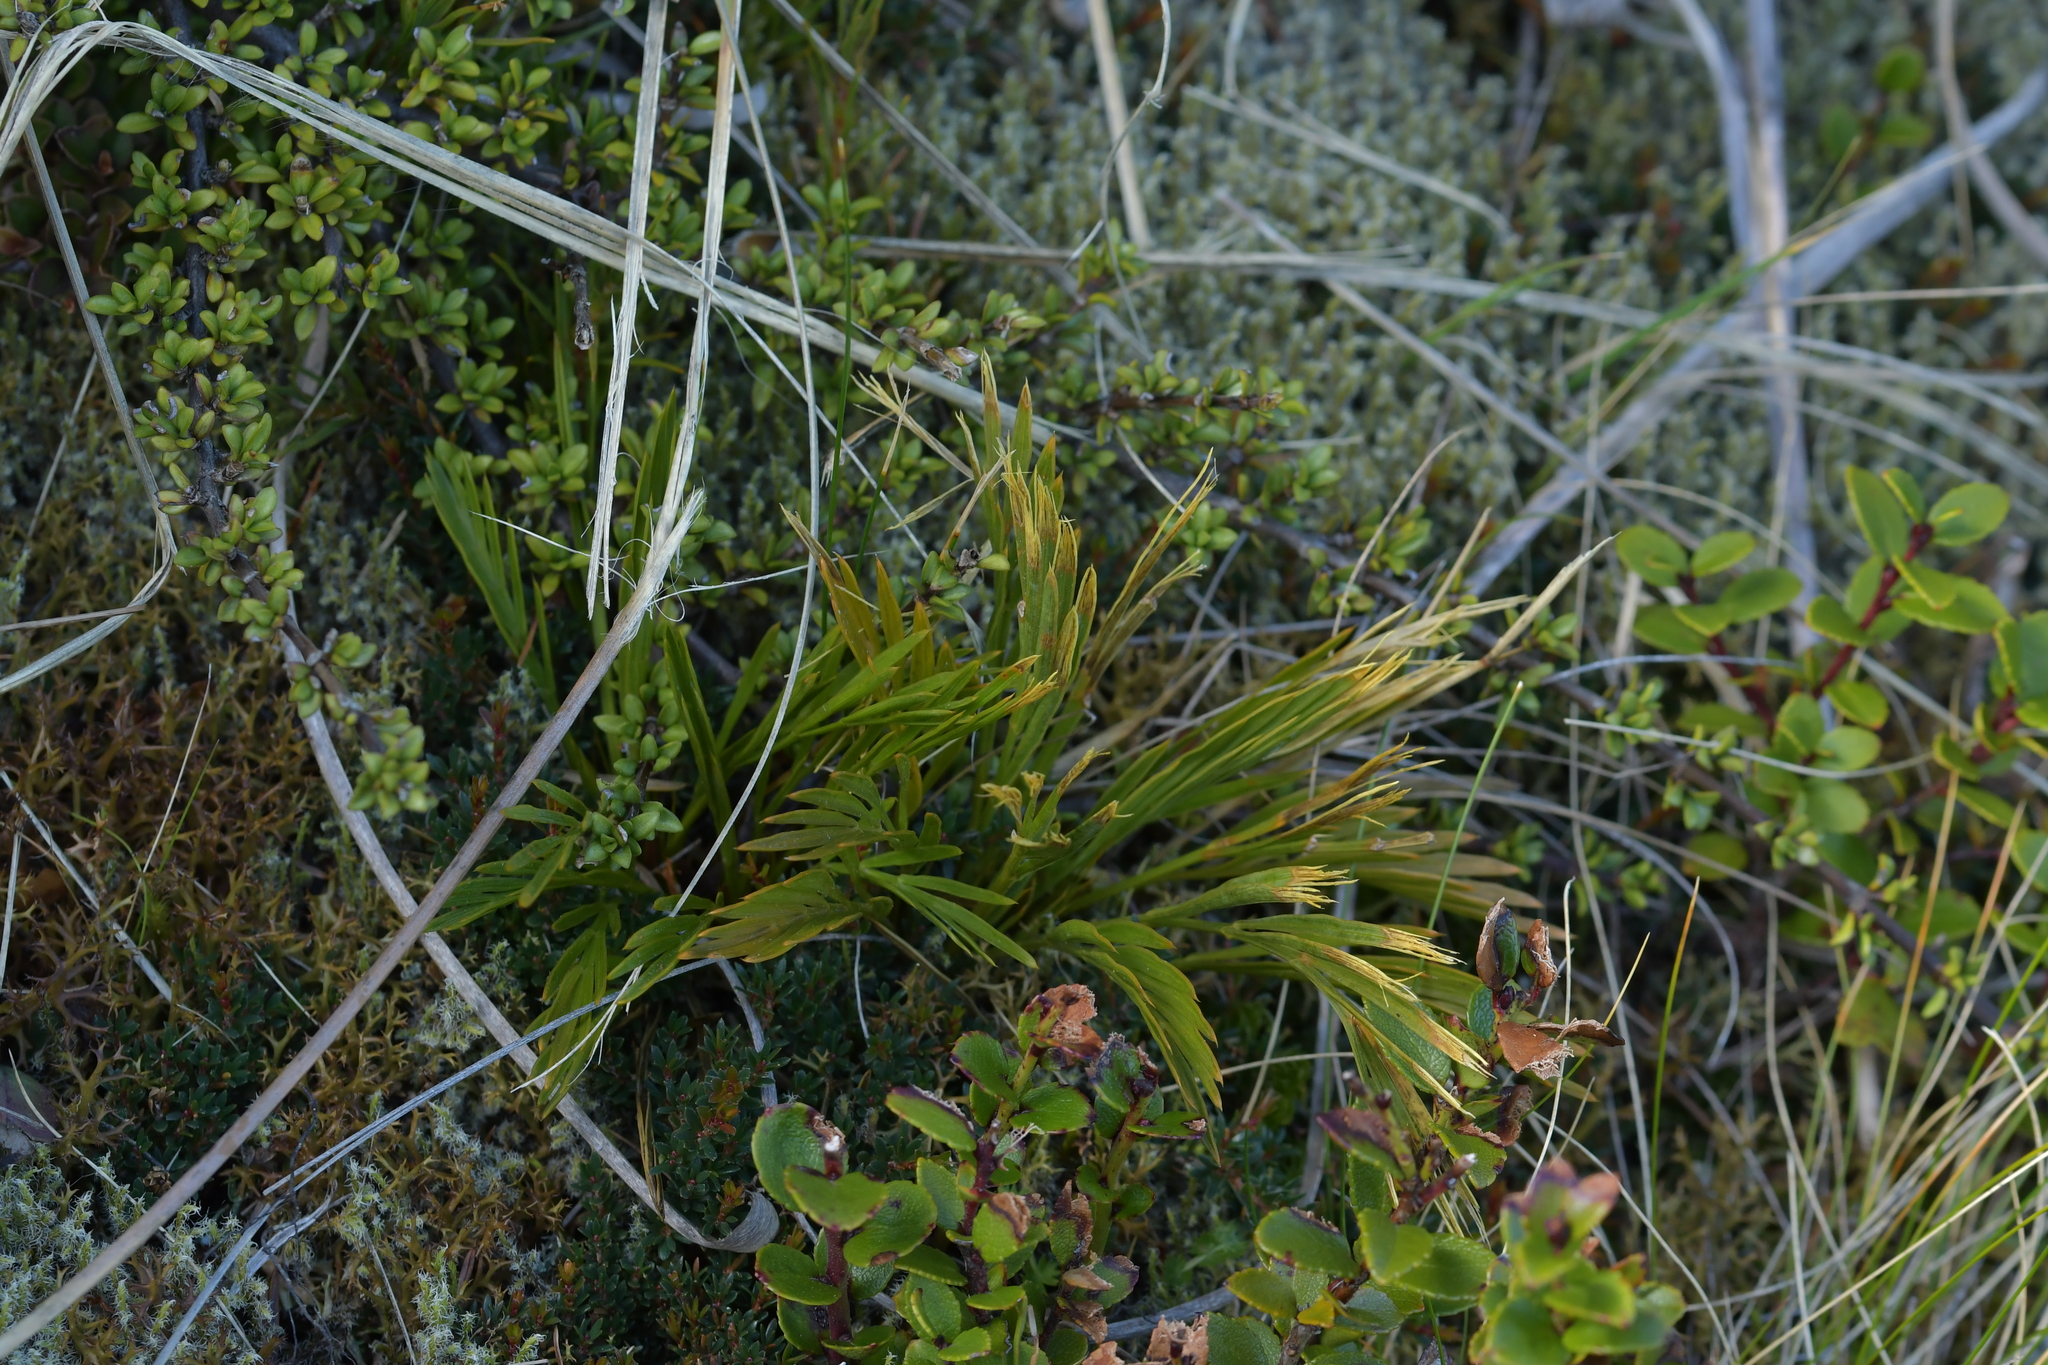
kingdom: Plantae
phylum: Tracheophyta
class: Magnoliopsida
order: Apiales
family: Apiaceae
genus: Aciphylla
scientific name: Aciphylla monroi
